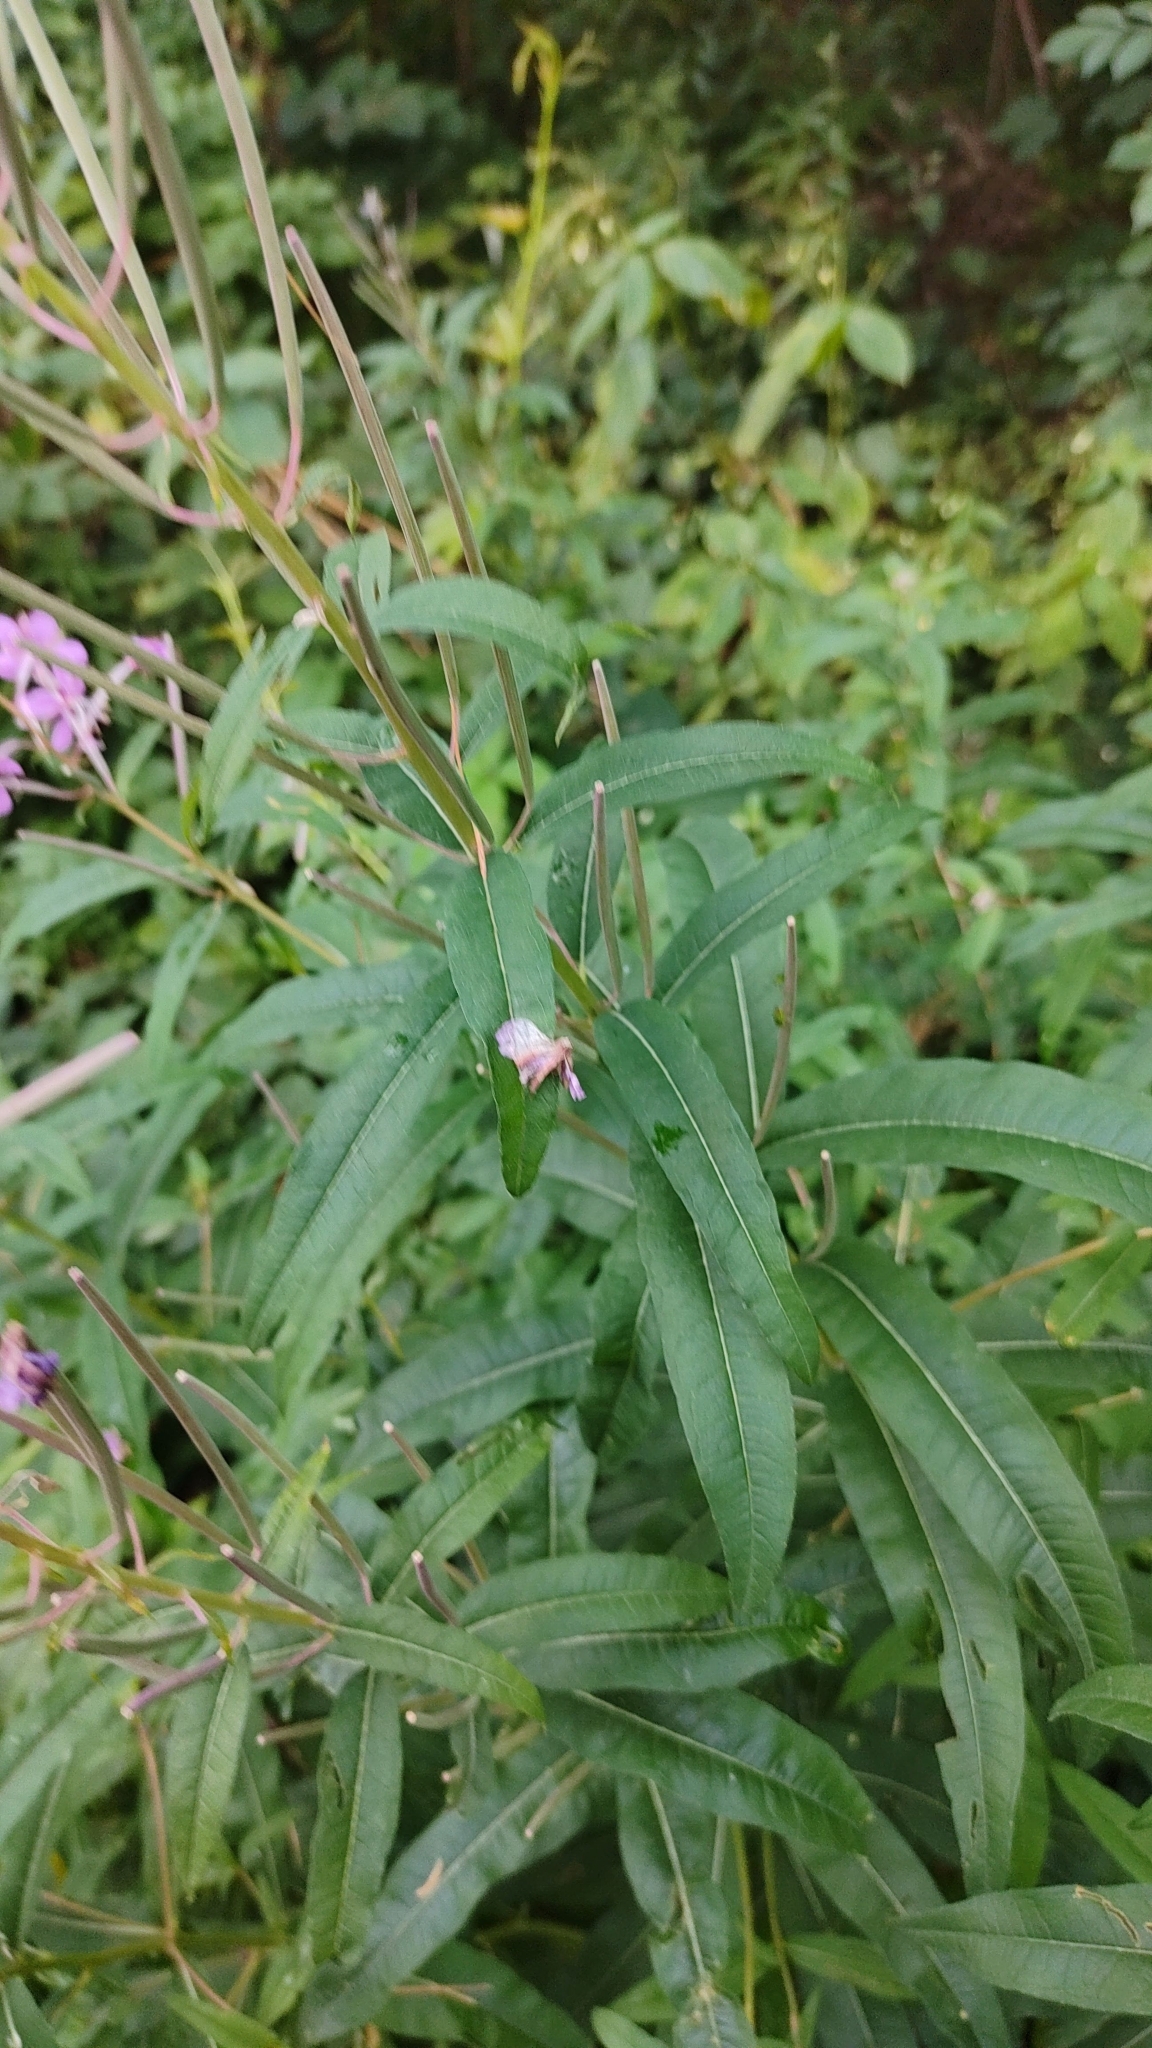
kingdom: Plantae
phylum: Tracheophyta
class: Magnoliopsida
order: Myrtales
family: Onagraceae
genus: Chamaenerion
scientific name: Chamaenerion angustifolium
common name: Fireweed
